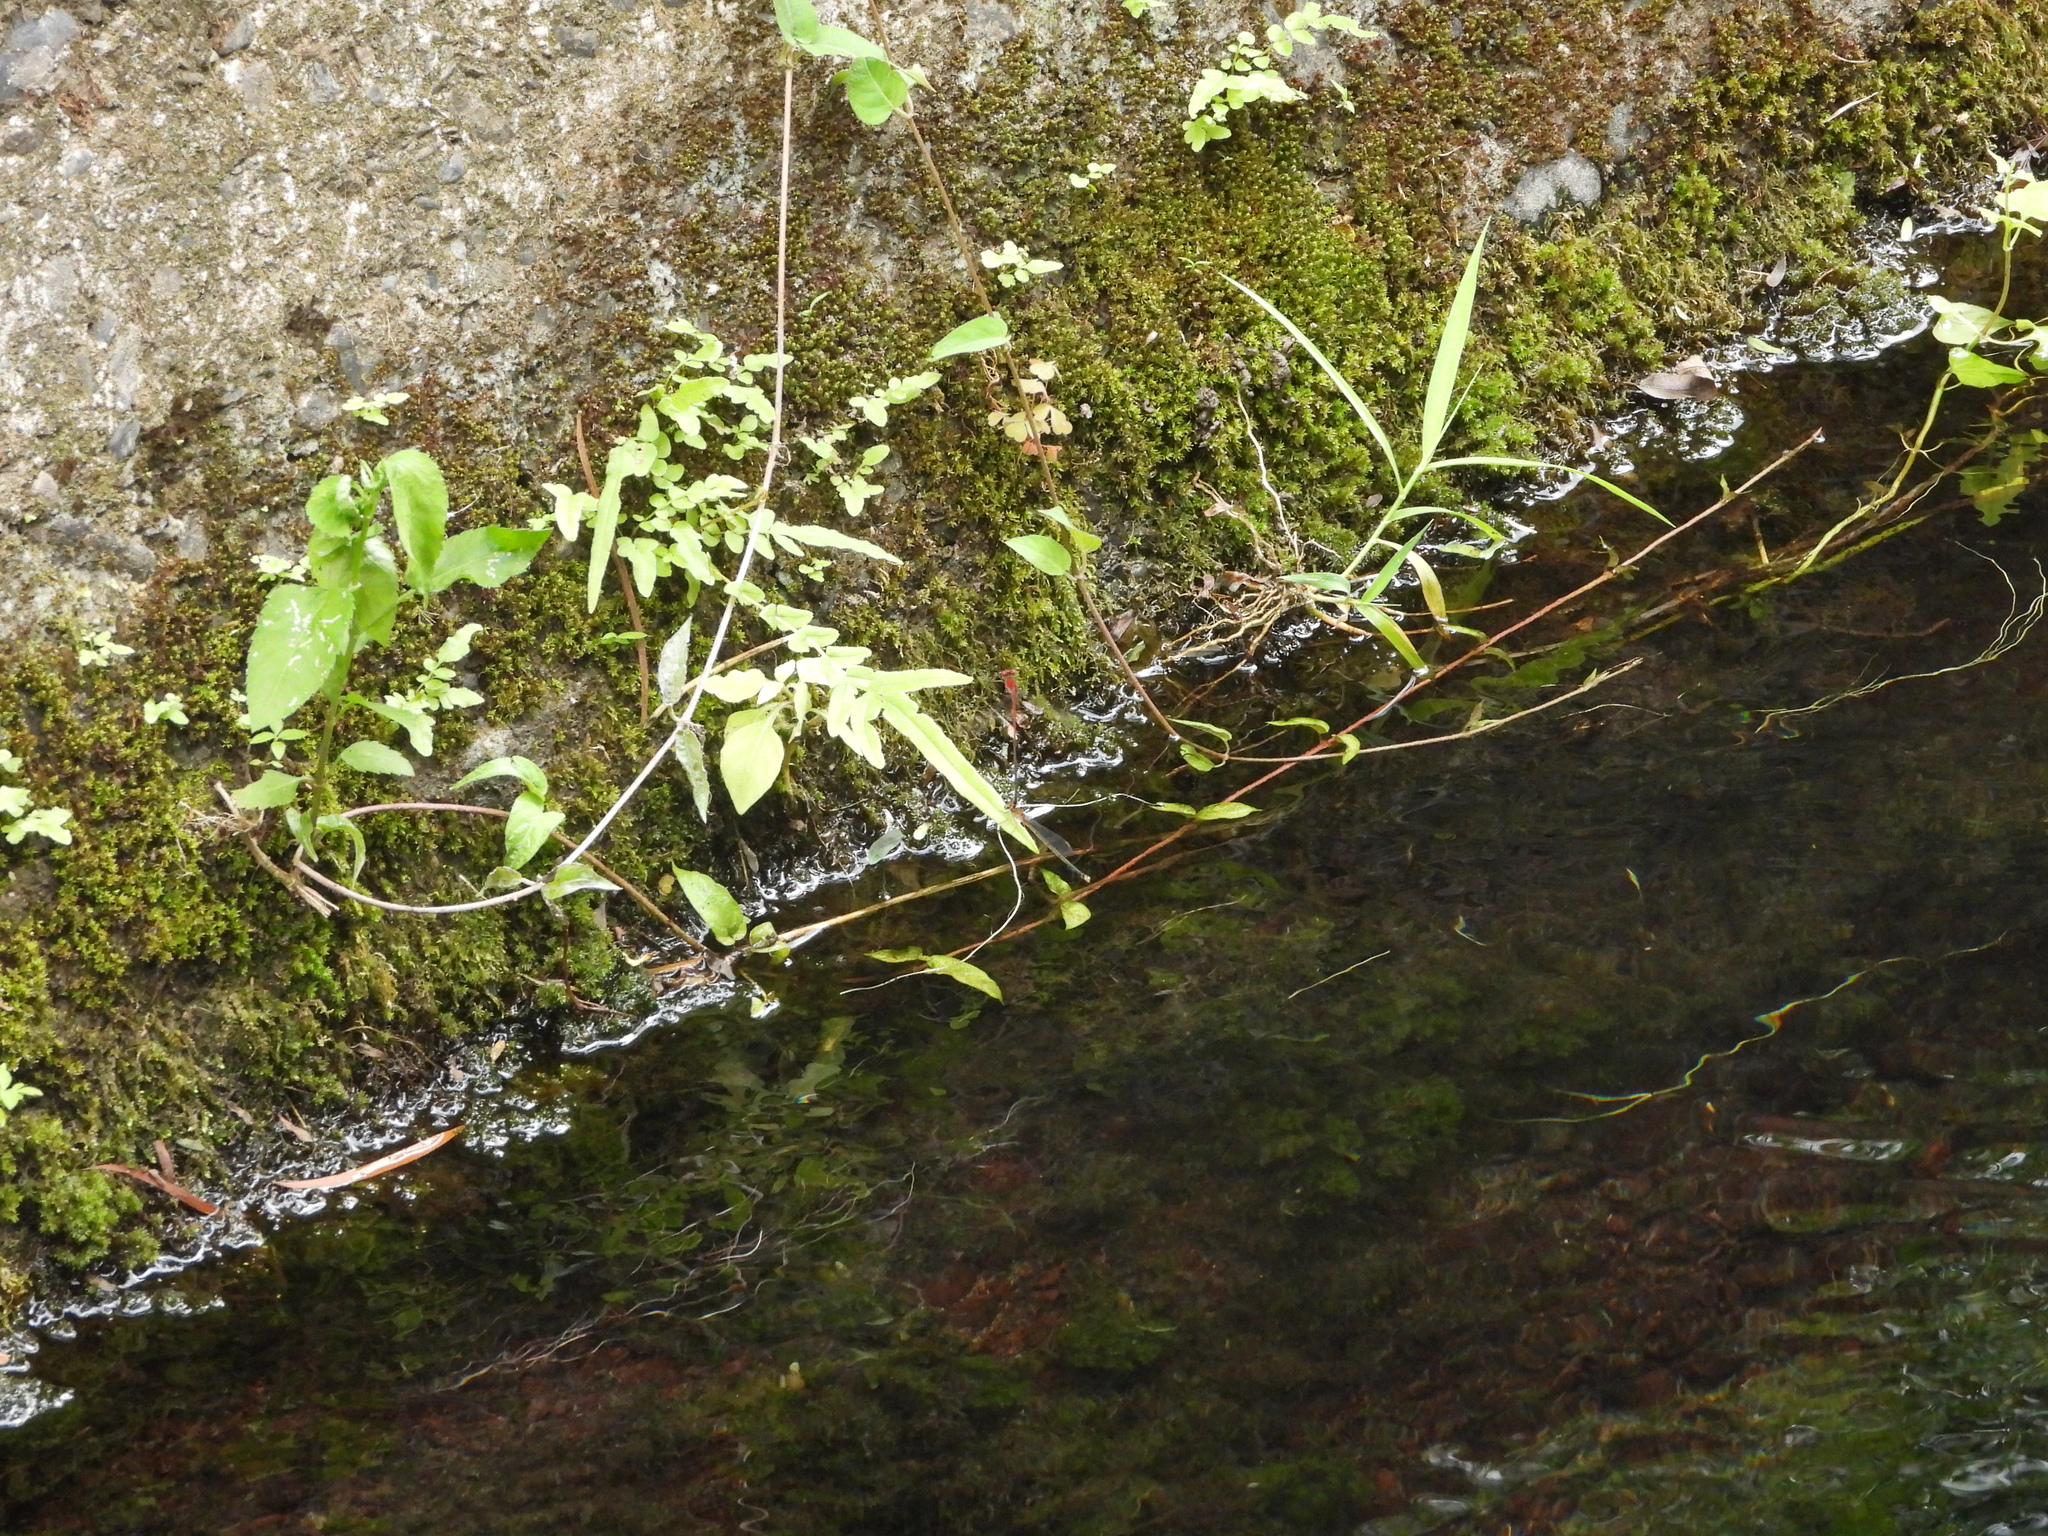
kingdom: Animalia
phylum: Arthropoda
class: Insecta
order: Odonata
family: Coenagrionidae
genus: Pseudagrion
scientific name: Pseudagrion pilidorsum
